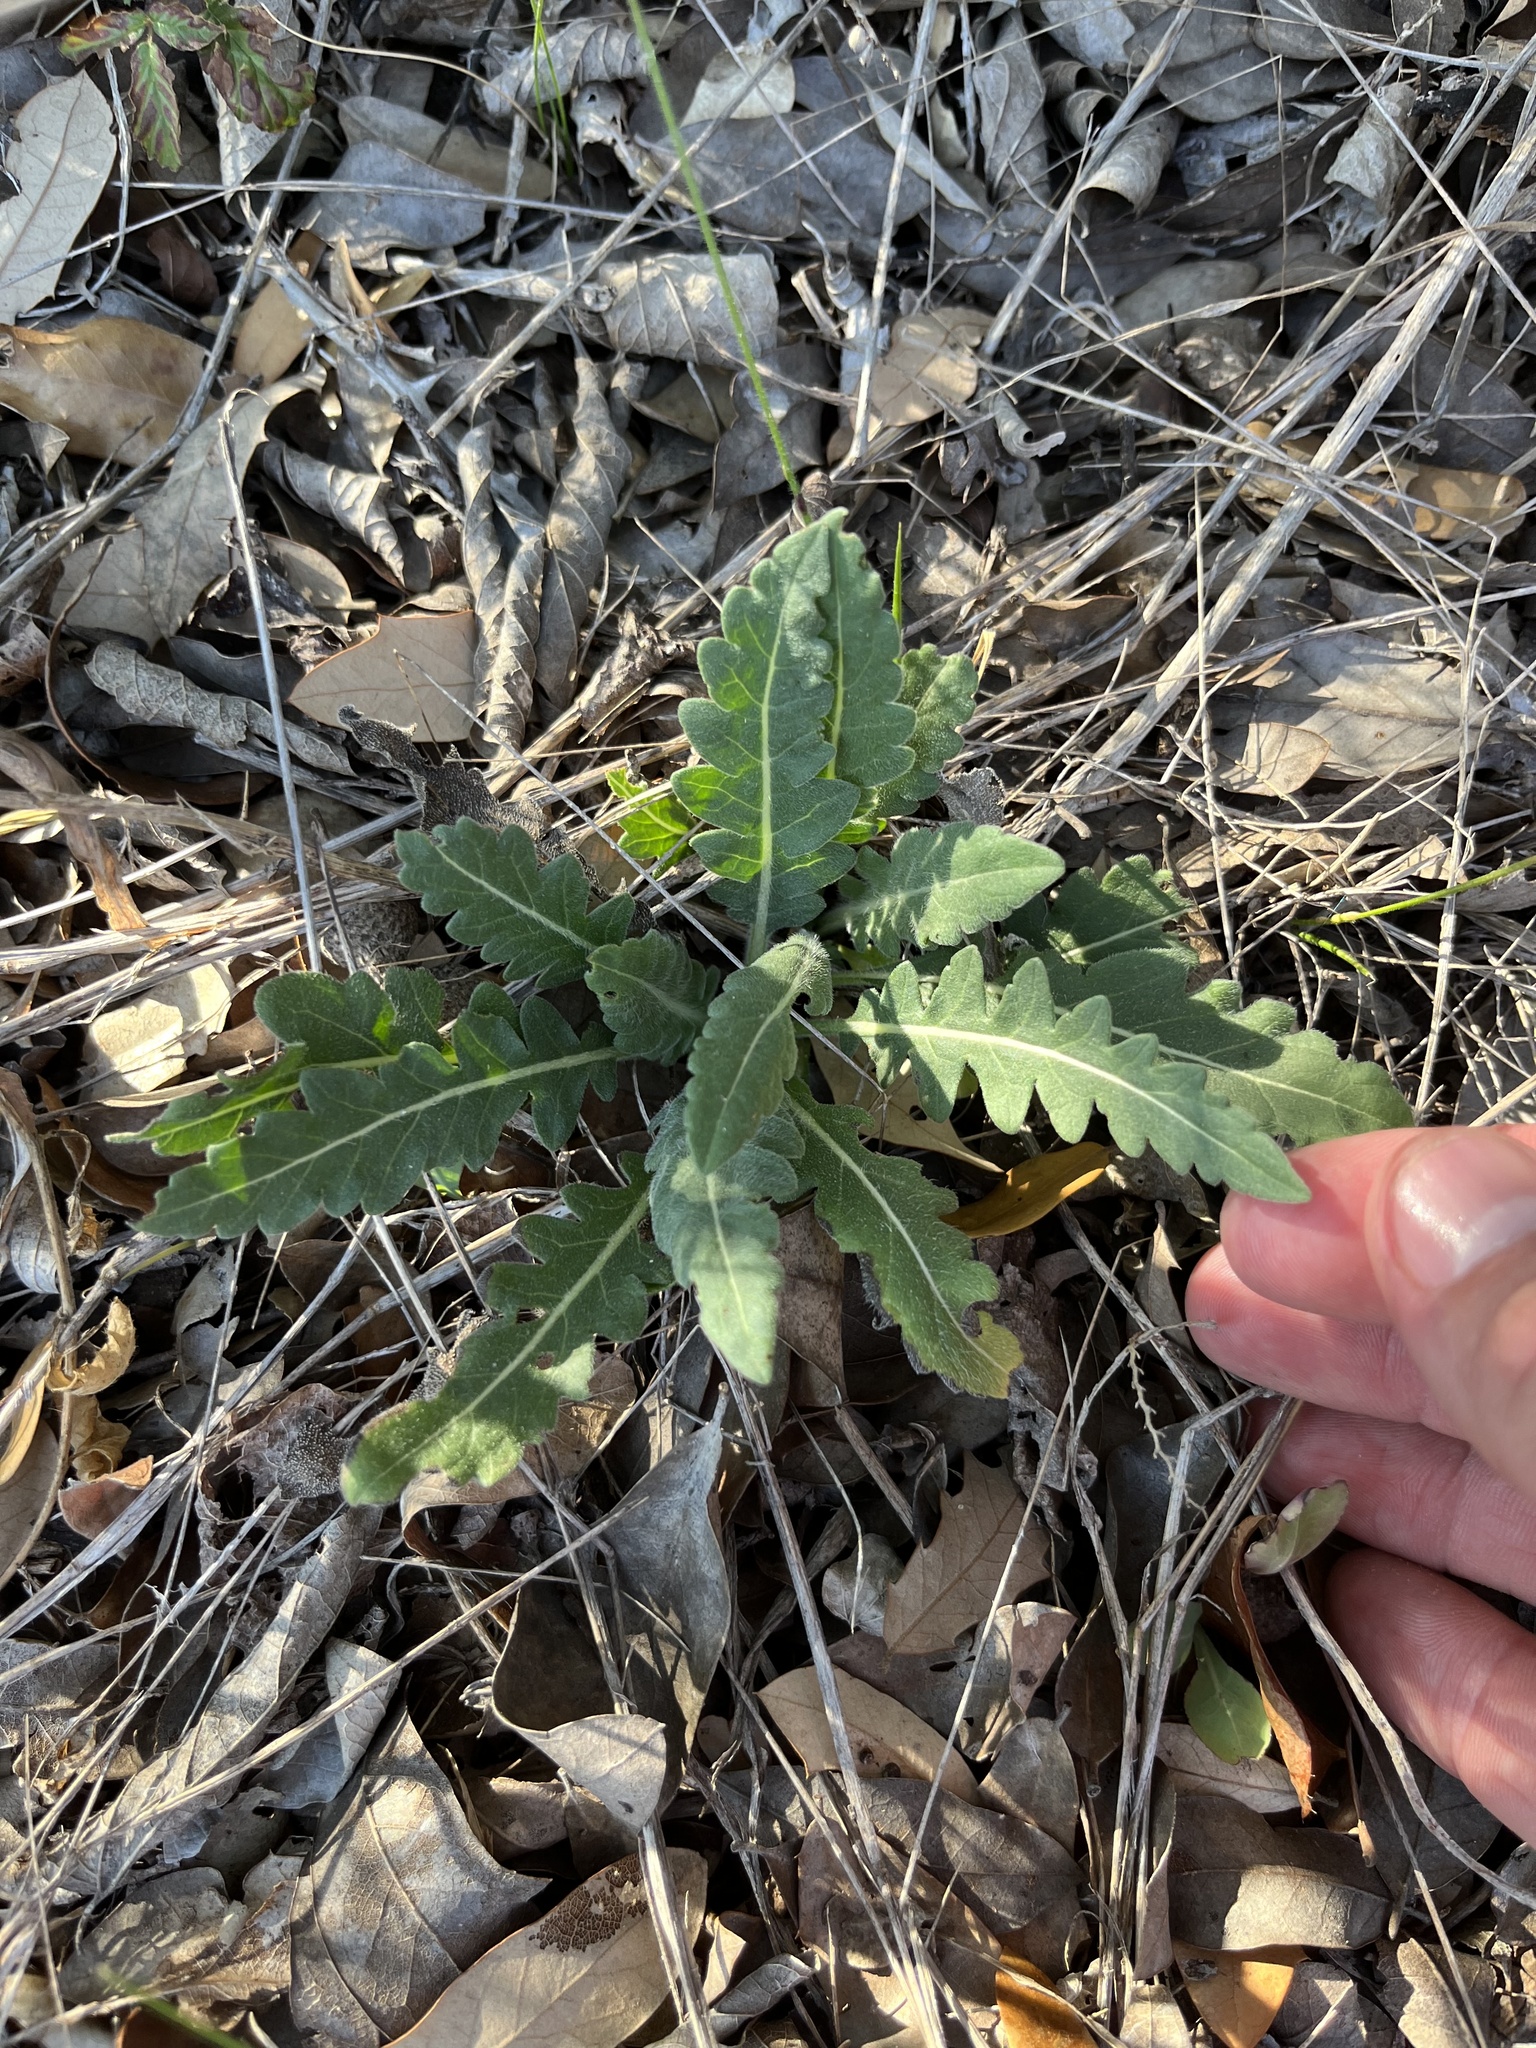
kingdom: Plantae
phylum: Tracheophyta
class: Magnoliopsida
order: Asterales
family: Asteraceae
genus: Engelmannia
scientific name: Engelmannia peristenia
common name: Engelmann's daisy
